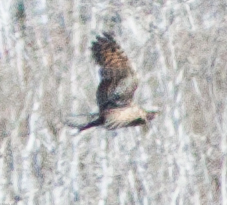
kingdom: Animalia
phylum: Chordata
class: Aves
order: Caprimulgiformes
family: Caprimulgidae
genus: Phalaenoptilus
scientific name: Phalaenoptilus nuttallii
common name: Common poorwill
